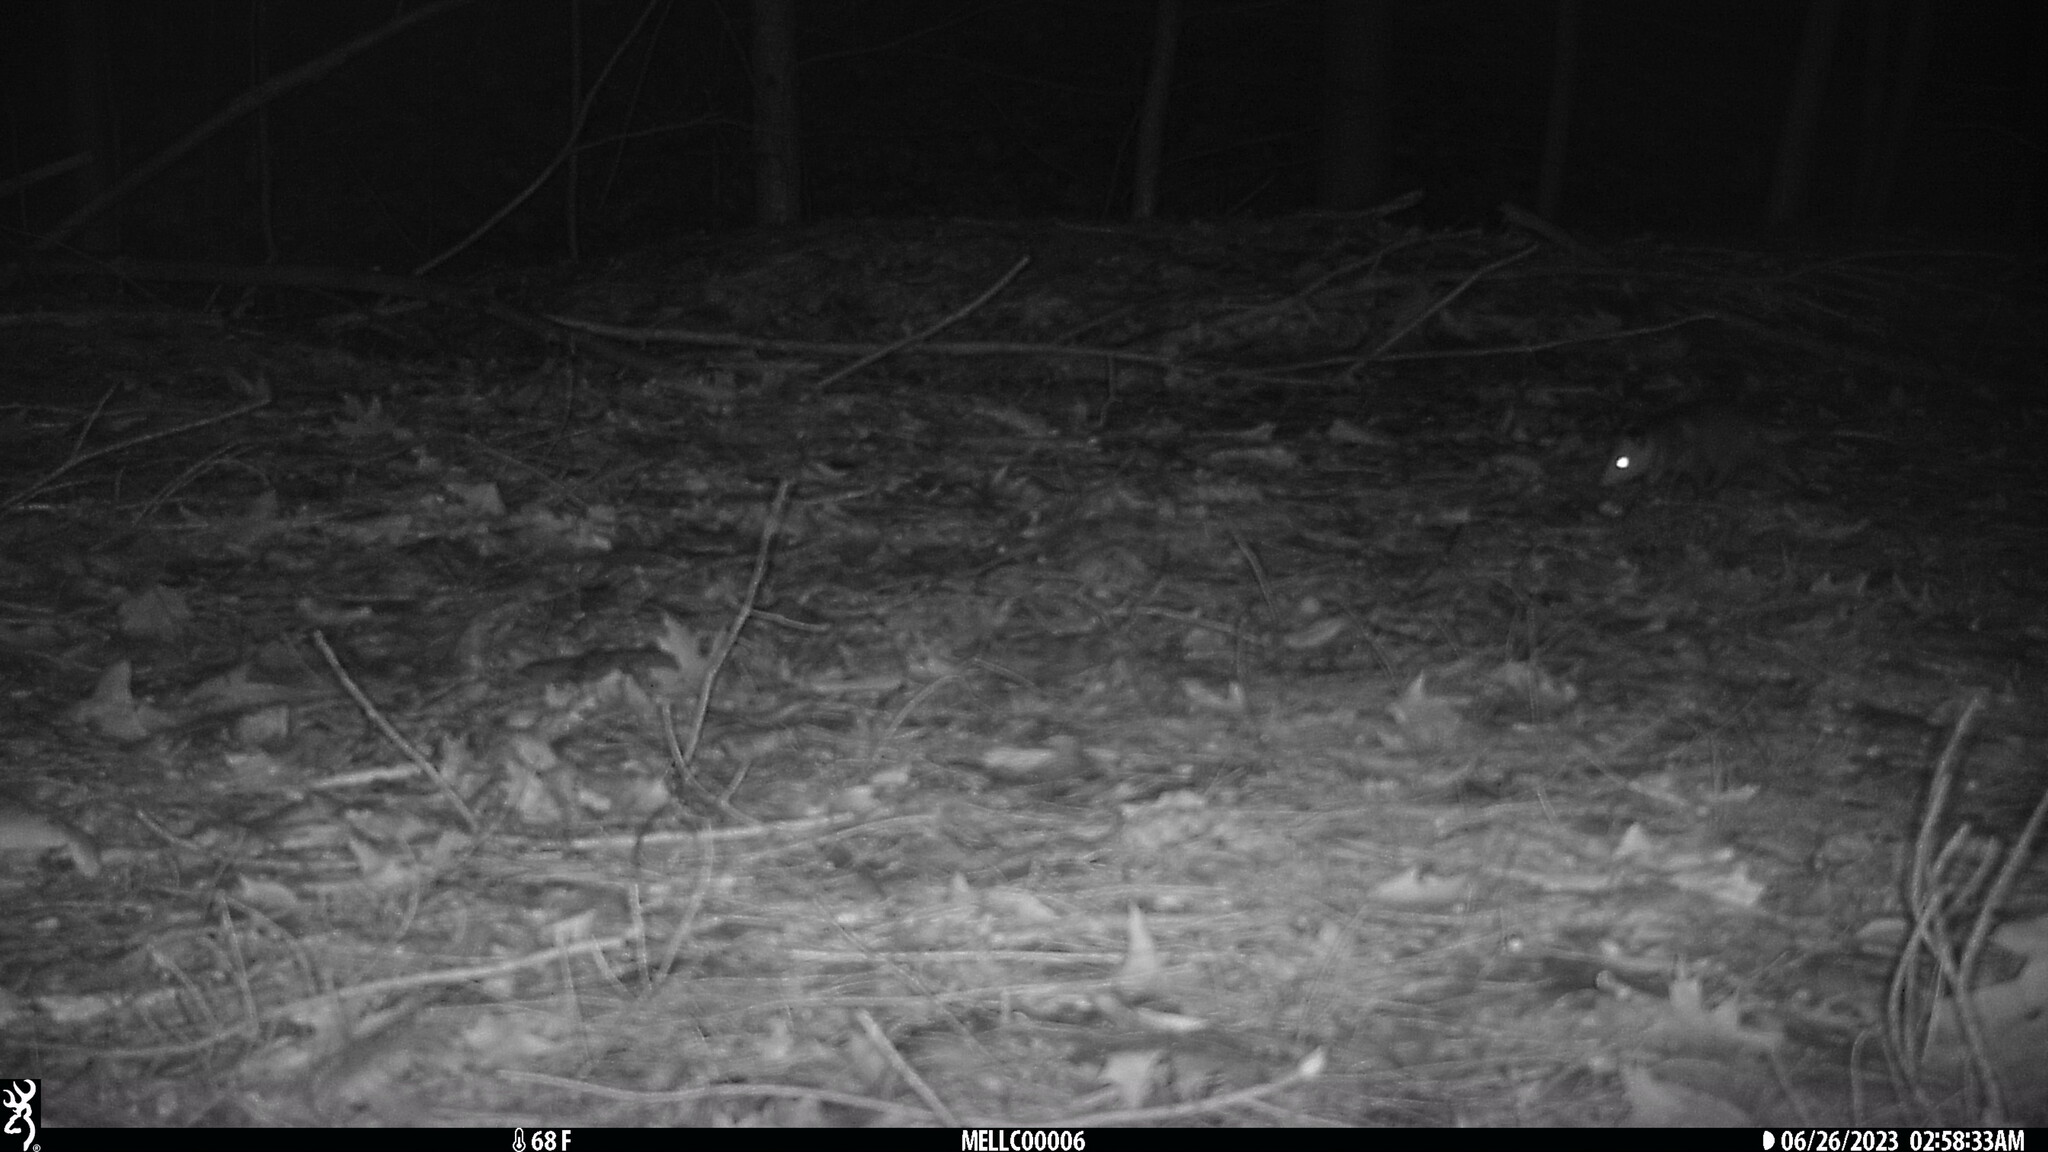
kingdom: Animalia
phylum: Chordata
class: Mammalia
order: Didelphimorphia
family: Didelphidae
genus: Didelphis
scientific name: Didelphis virginiana
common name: Virginia opossum
